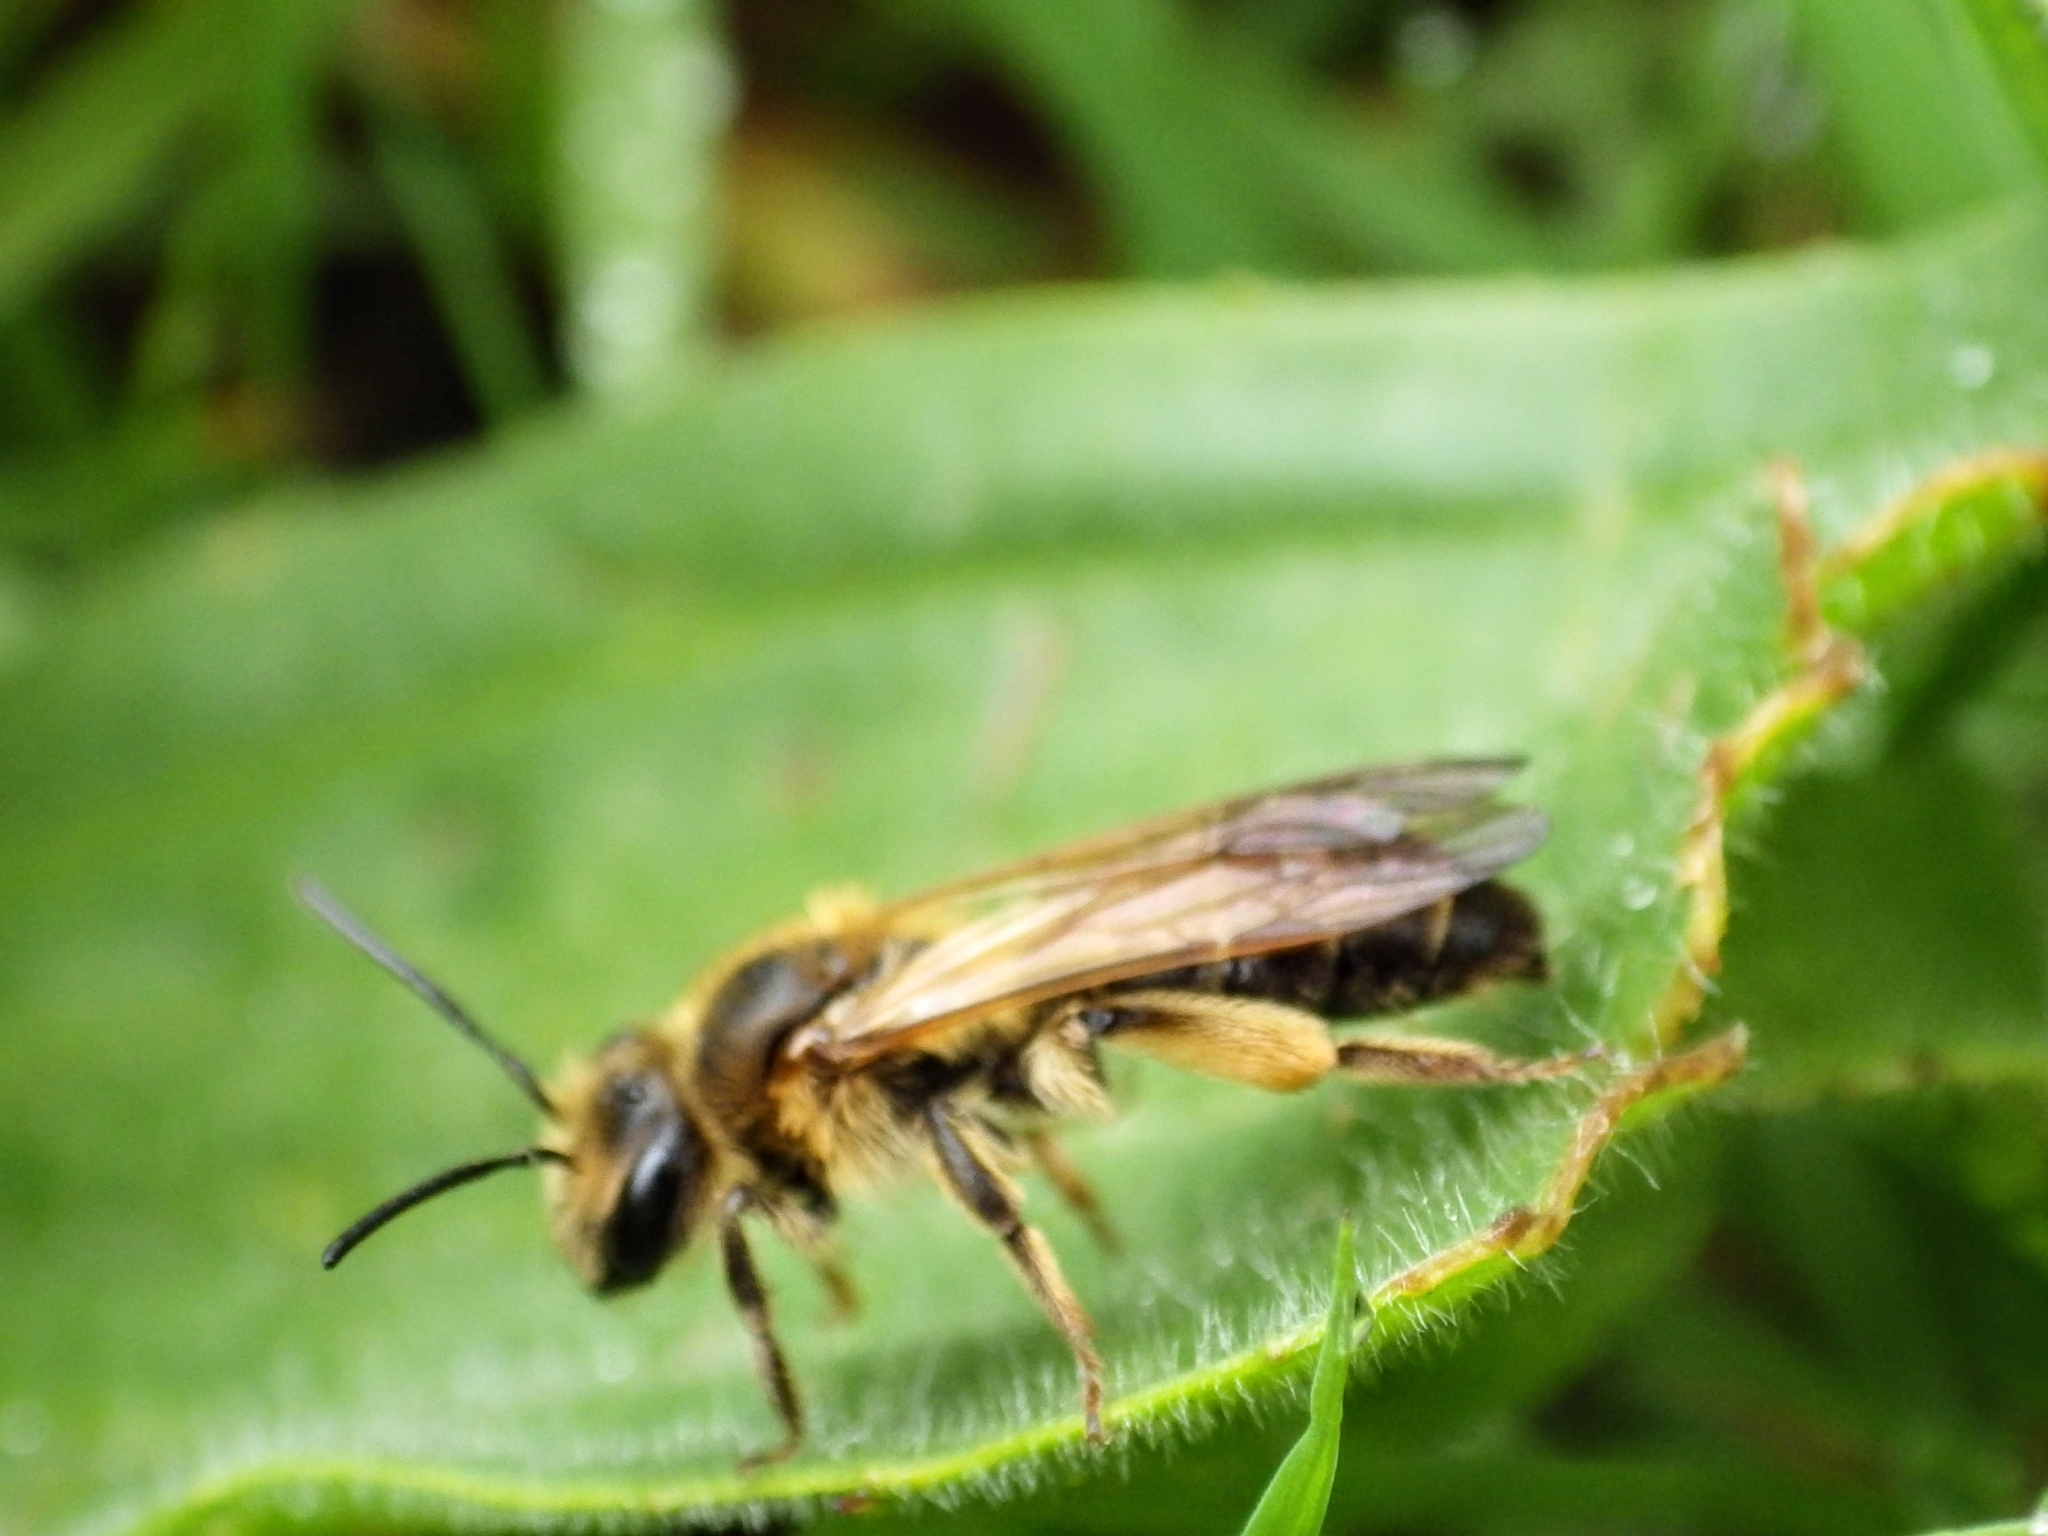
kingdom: Animalia
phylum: Arthropoda
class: Insecta
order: Hymenoptera
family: Andrenidae
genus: Andrena
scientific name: Andrena bucephala
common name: Big-headed mining bee
